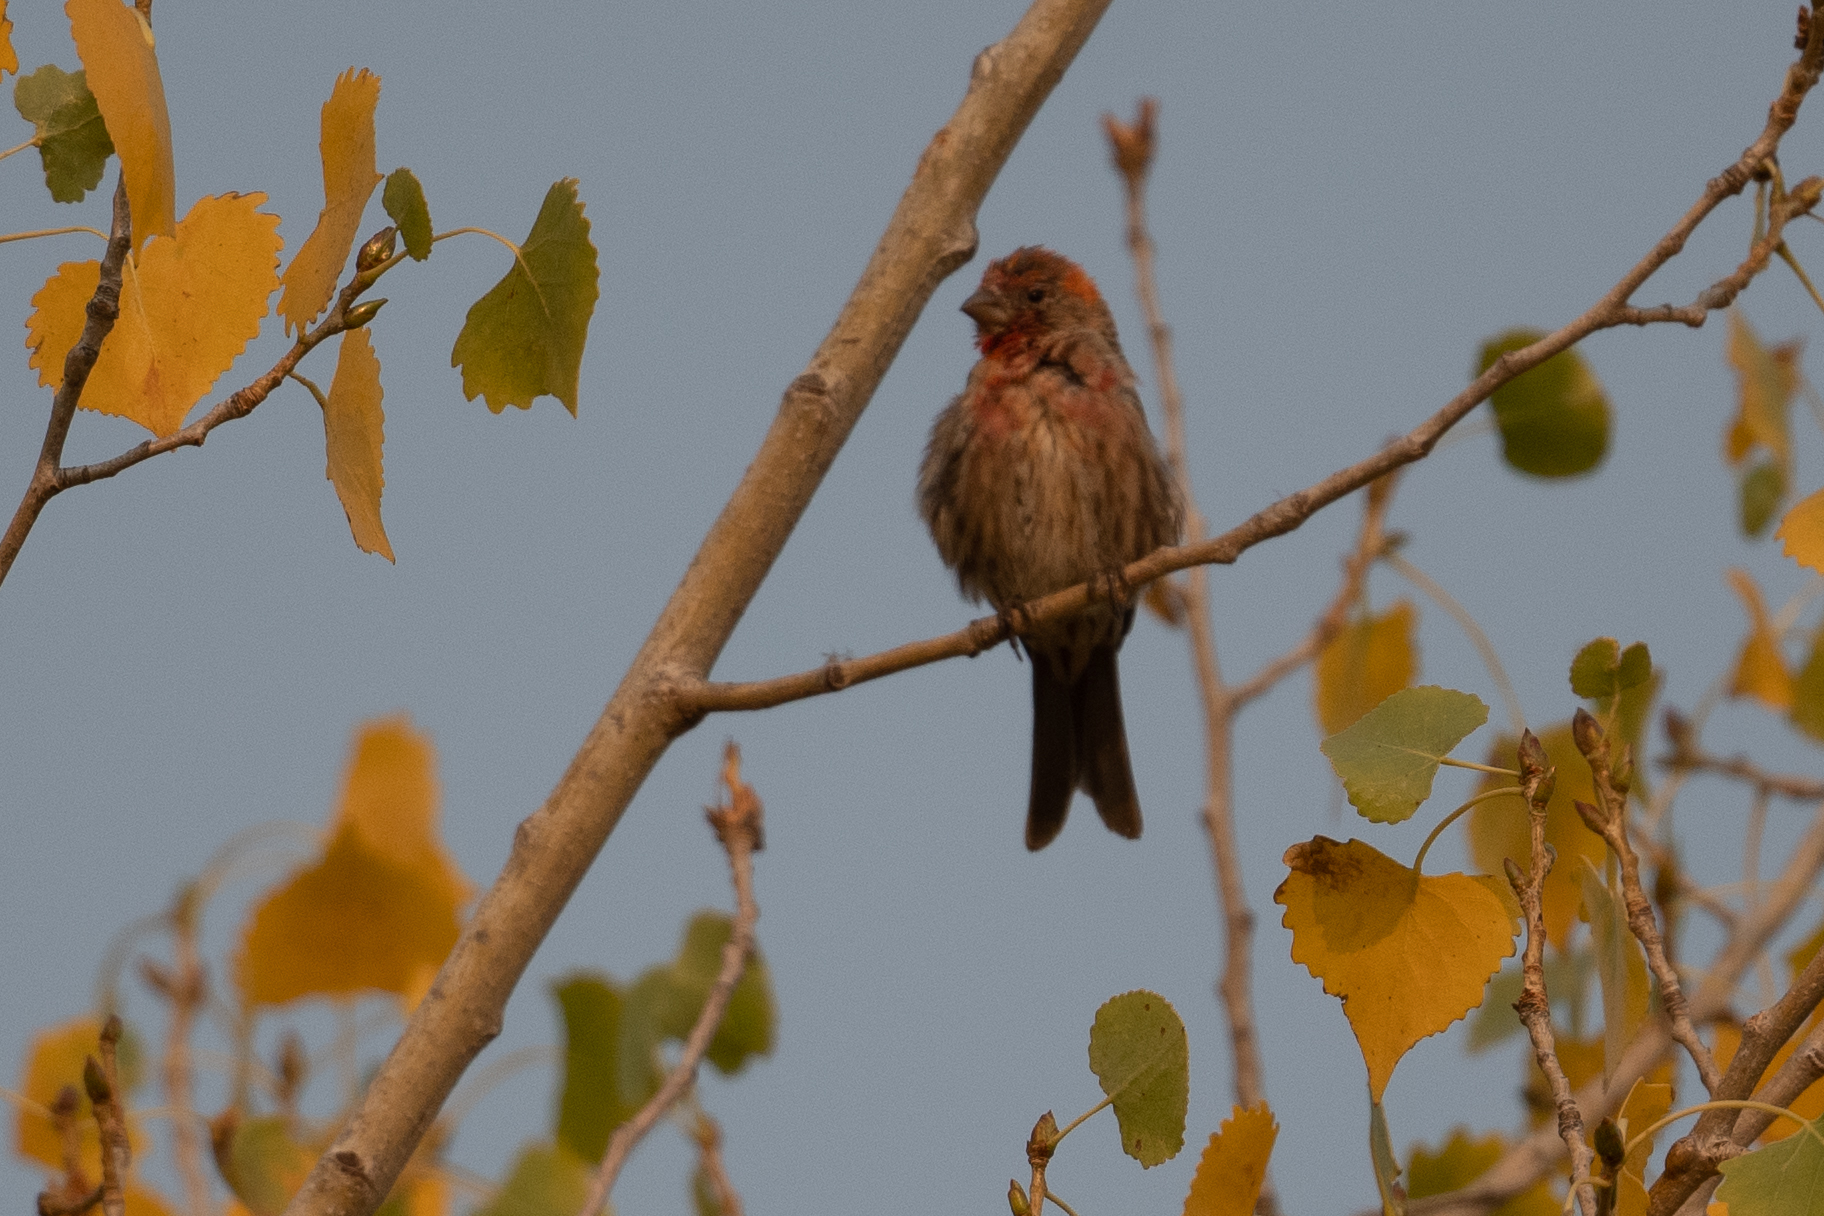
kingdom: Animalia
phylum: Chordata
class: Aves
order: Passeriformes
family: Fringillidae
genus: Haemorhous
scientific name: Haemorhous mexicanus
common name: House finch
